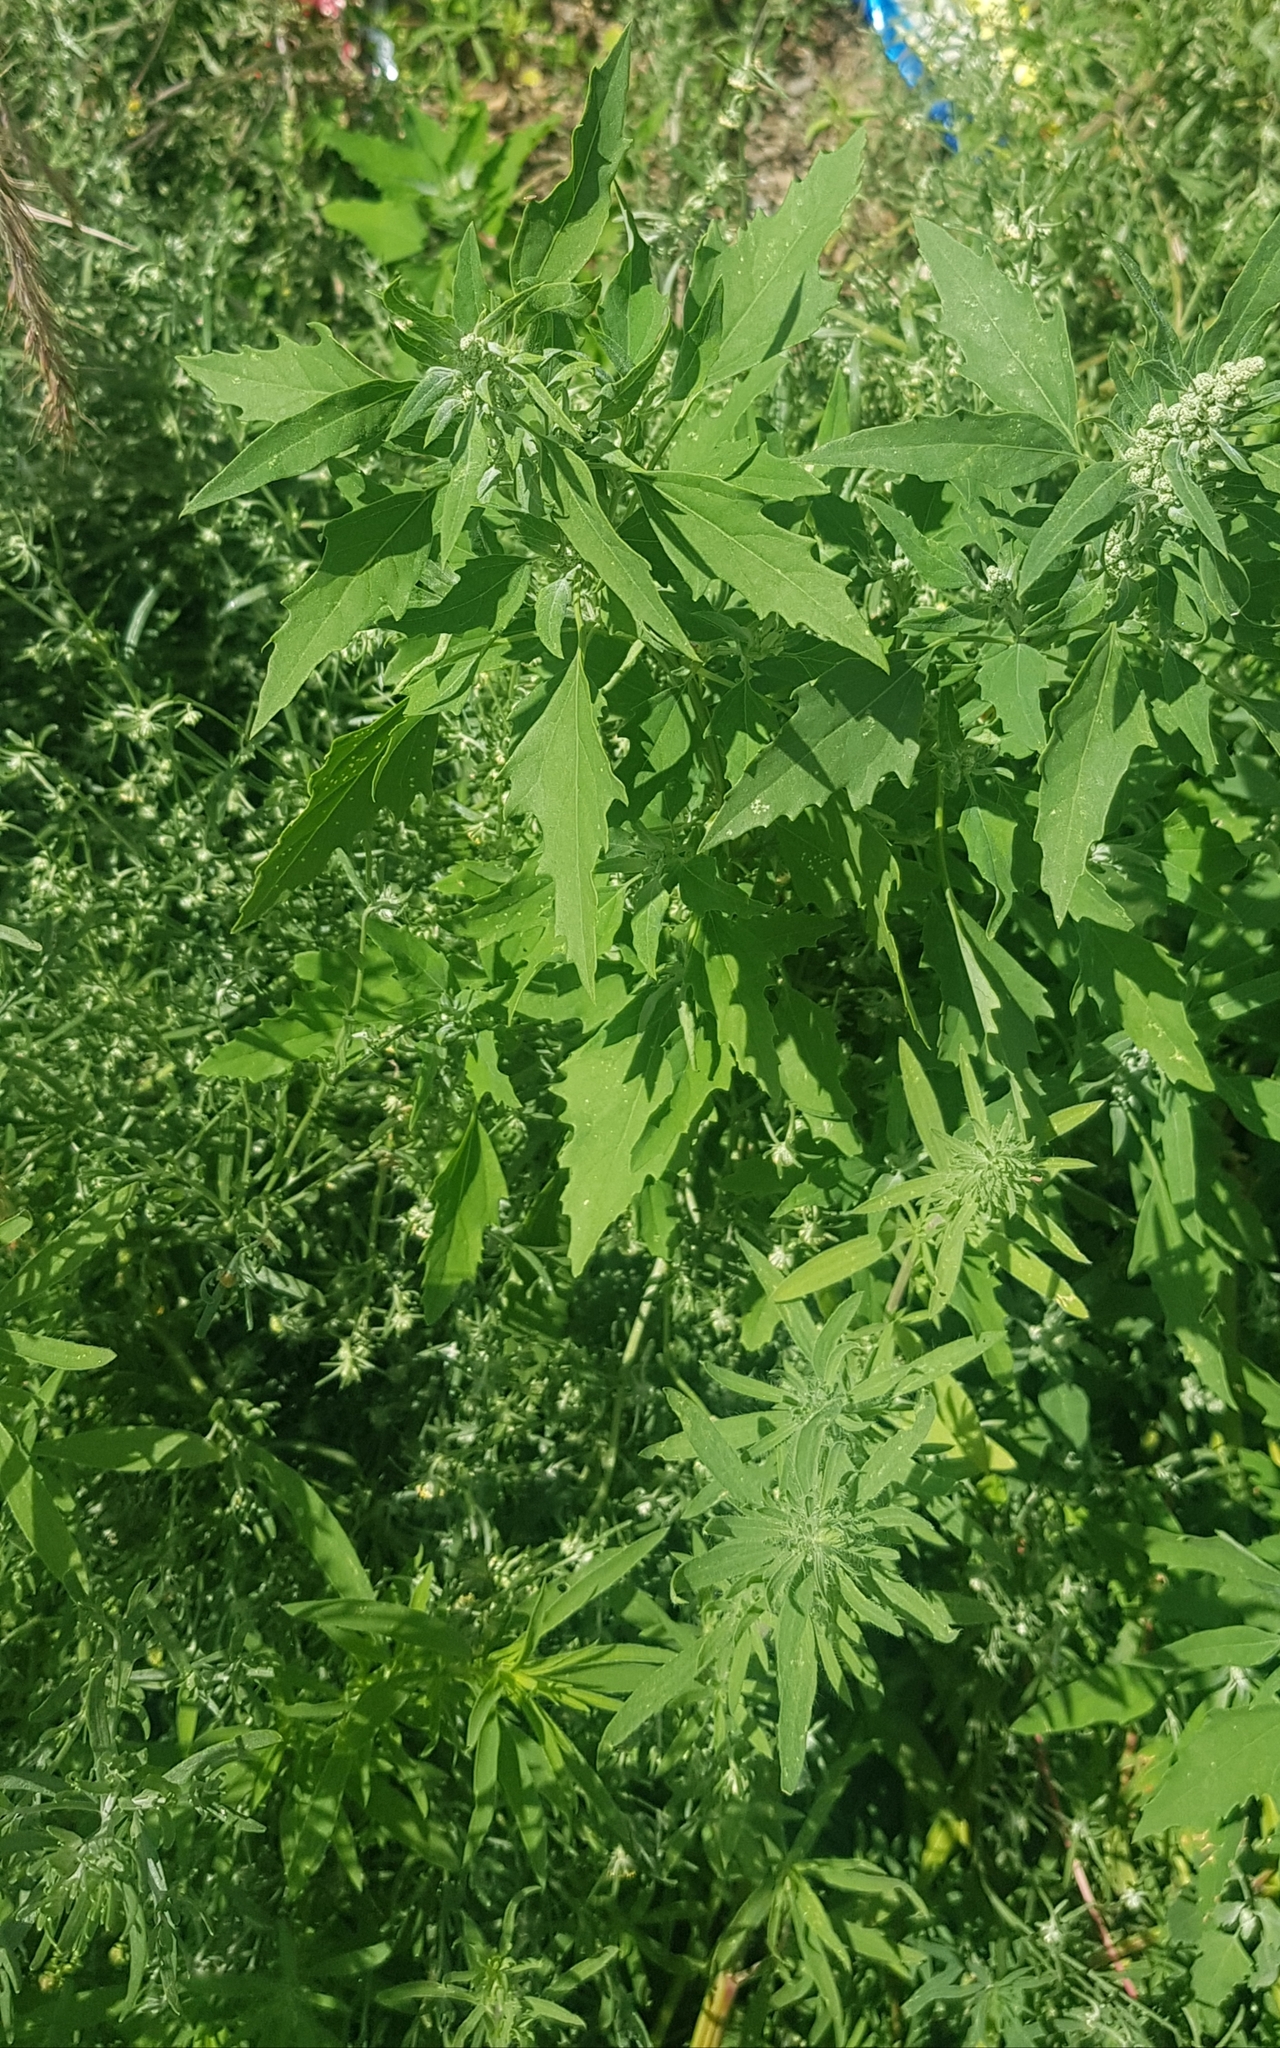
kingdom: Plantae
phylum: Tracheophyta
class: Magnoliopsida
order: Caryophyllales
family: Amaranthaceae
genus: Chenopodium
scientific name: Chenopodium album
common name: Fat-hen
